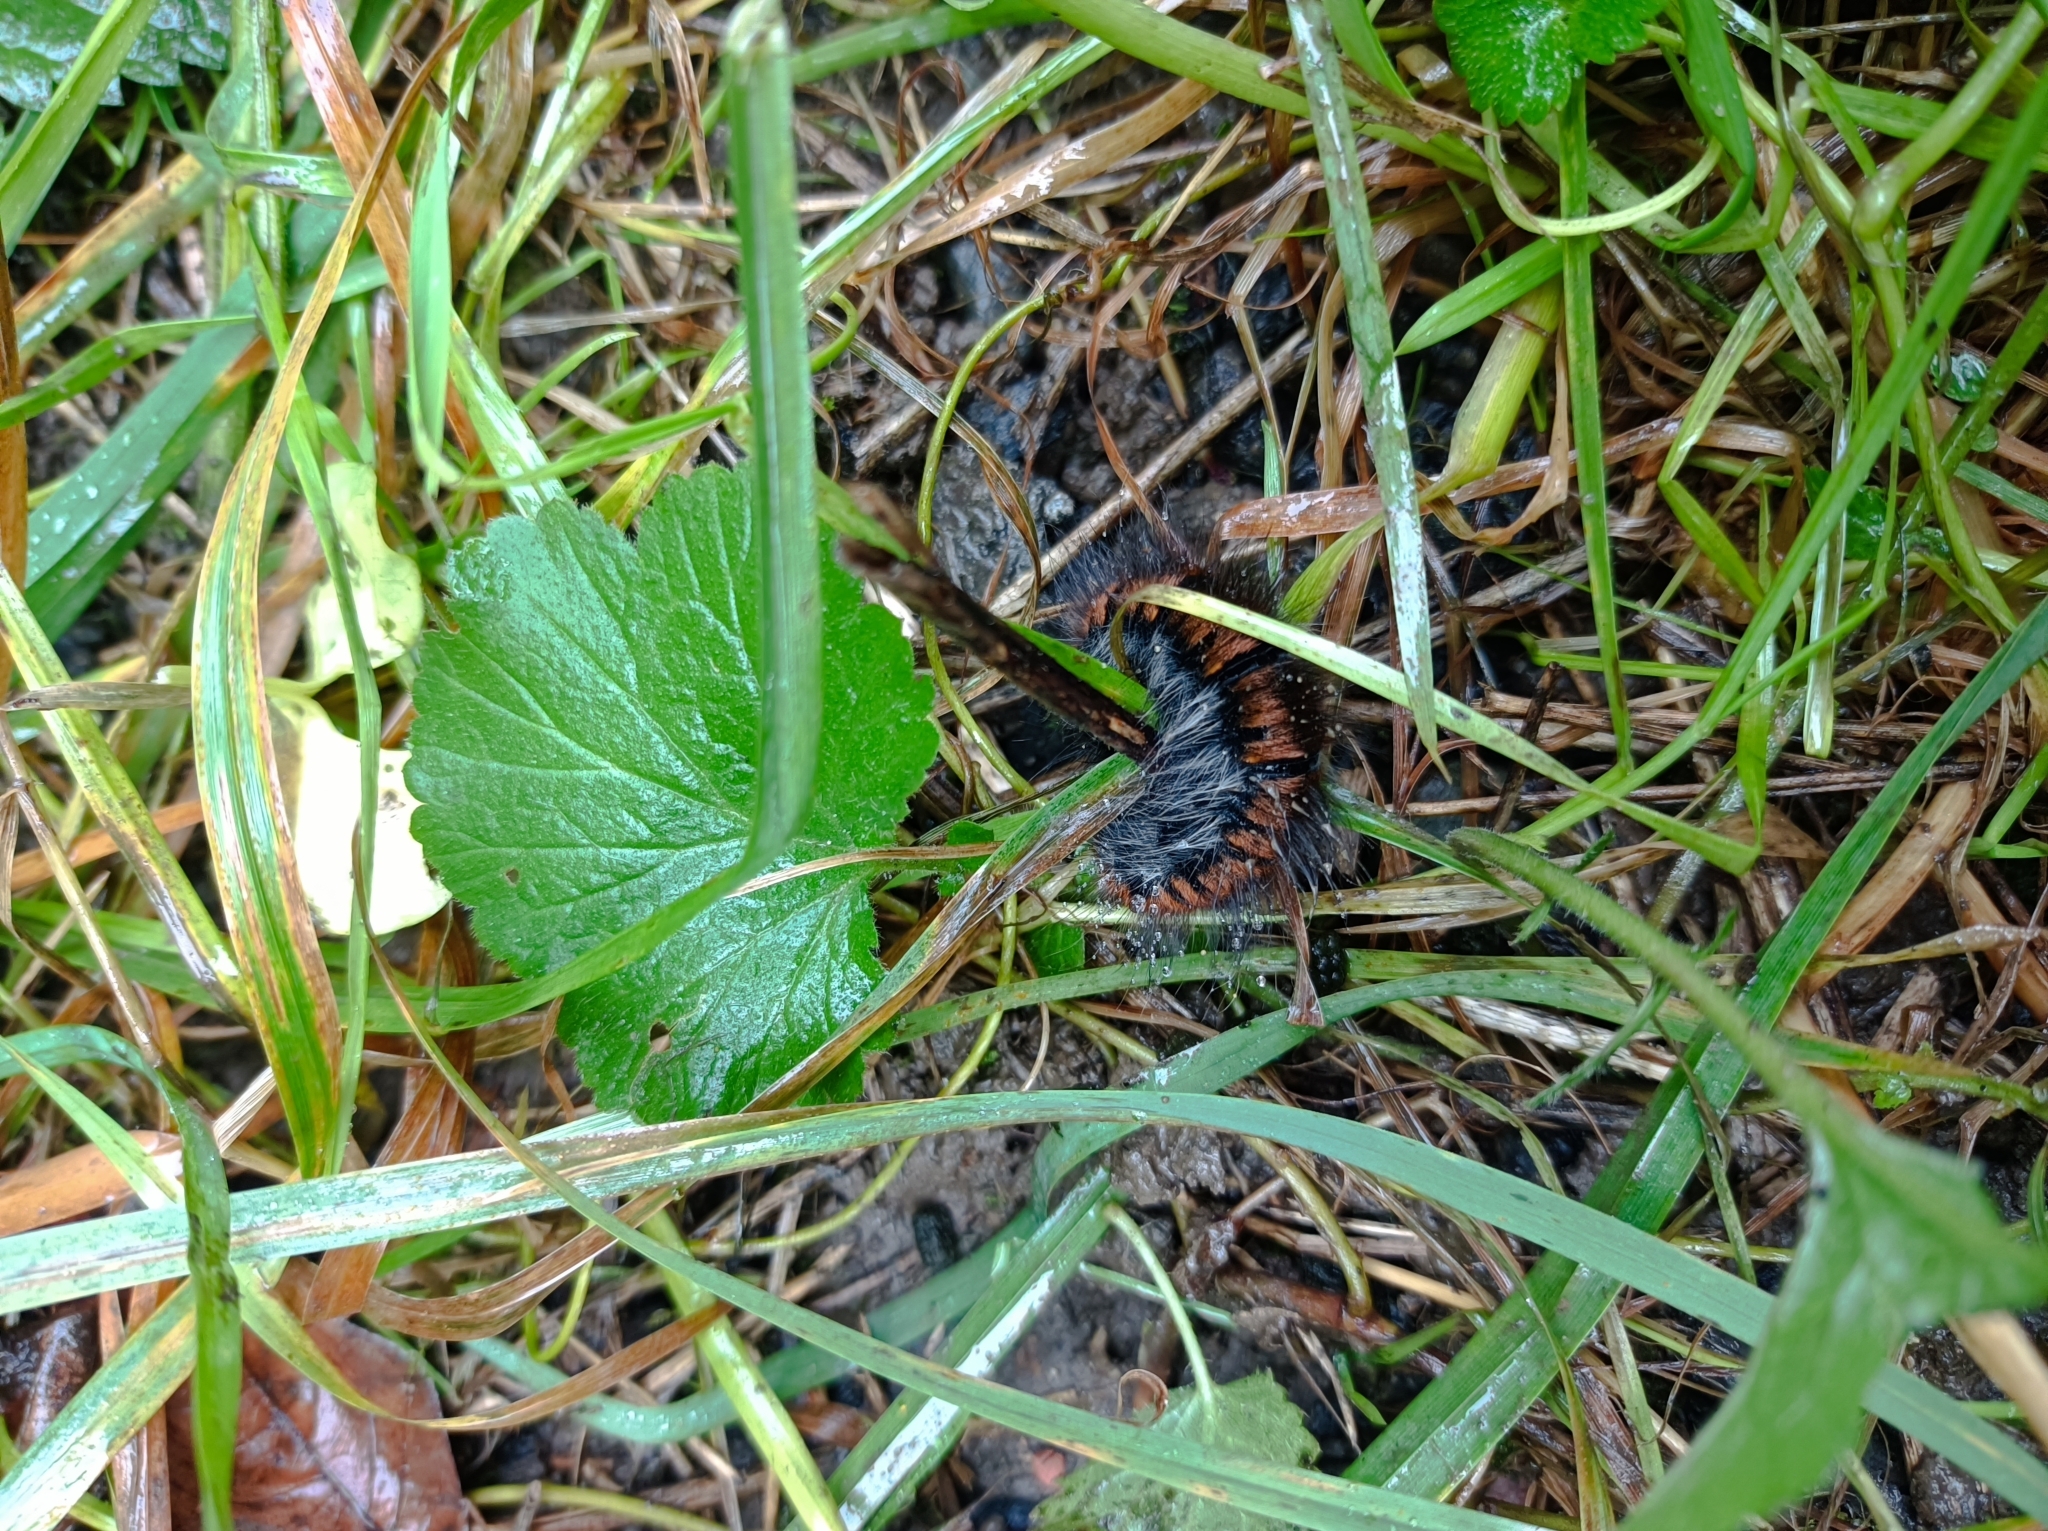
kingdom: Animalia
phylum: Arthropoda
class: Insecta
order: Lepidoptera
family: Lasiocampidae
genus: Macrothylacia
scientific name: Macrothylacia rubi
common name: Fox moth
